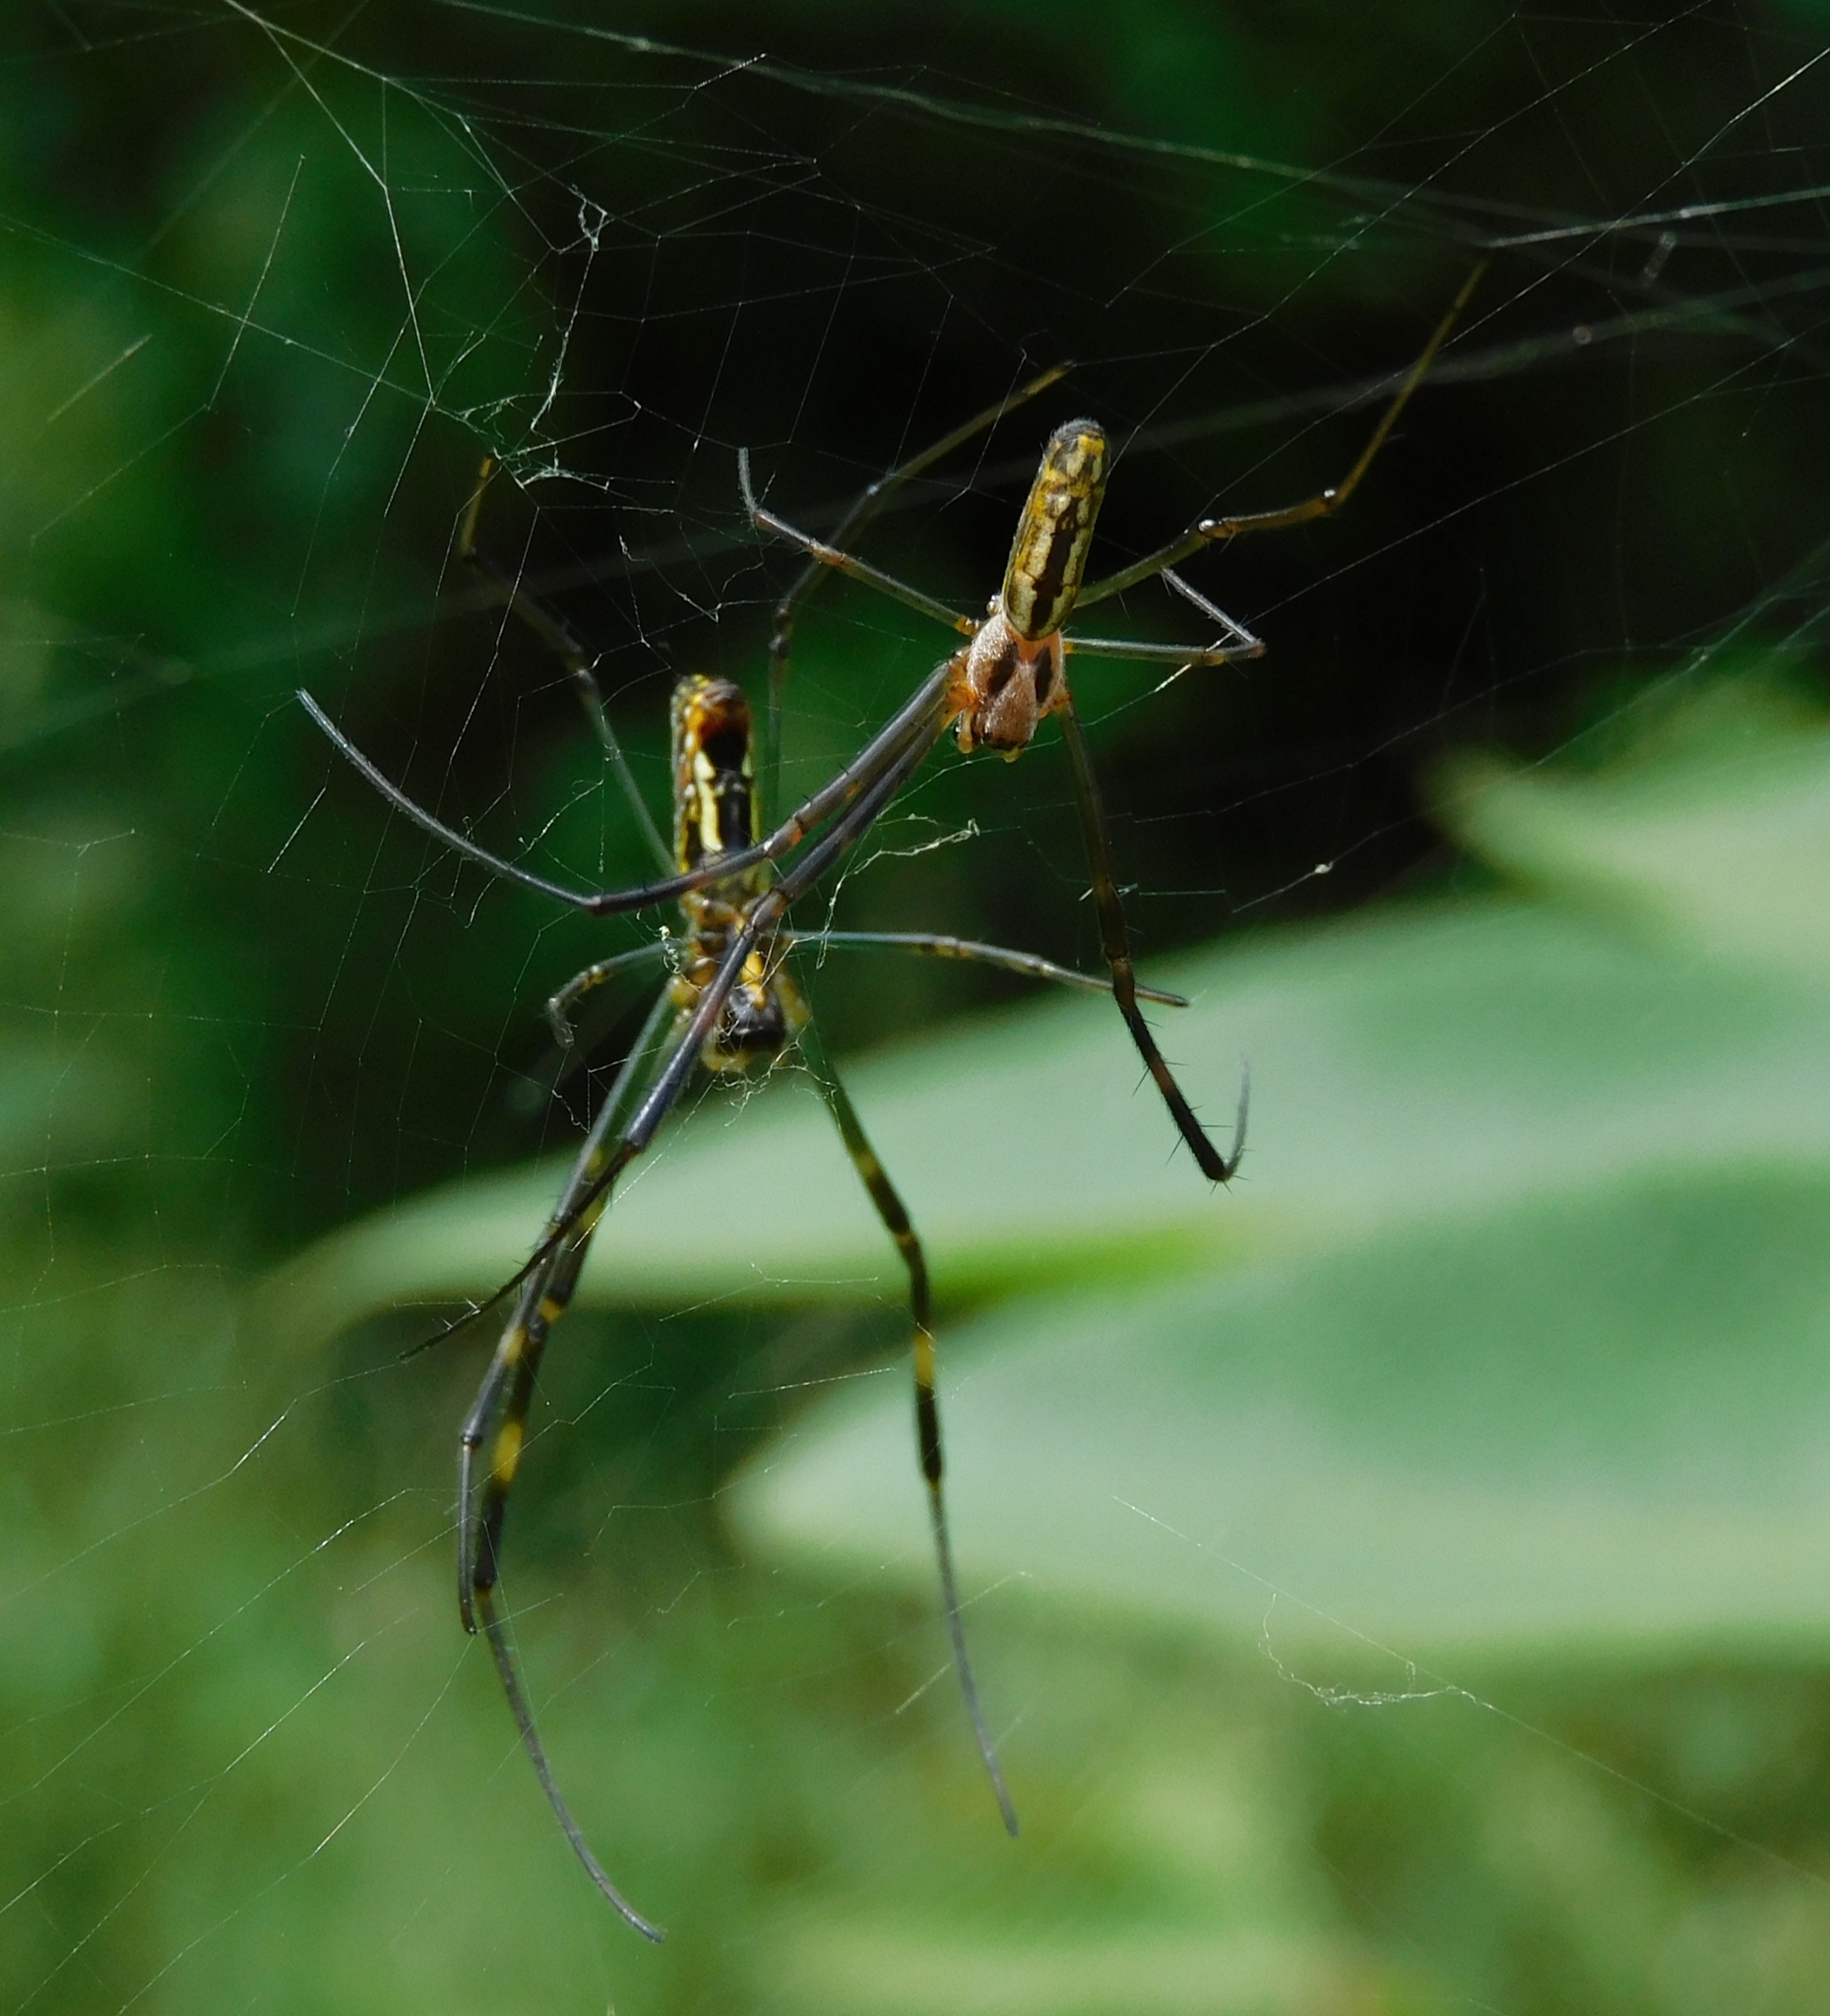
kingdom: Animalia
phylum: Arthropoda
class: Arachnida
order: Araneae
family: Araneidae
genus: Trichonephila
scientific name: Trichonephila clavata
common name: Jorō spider
